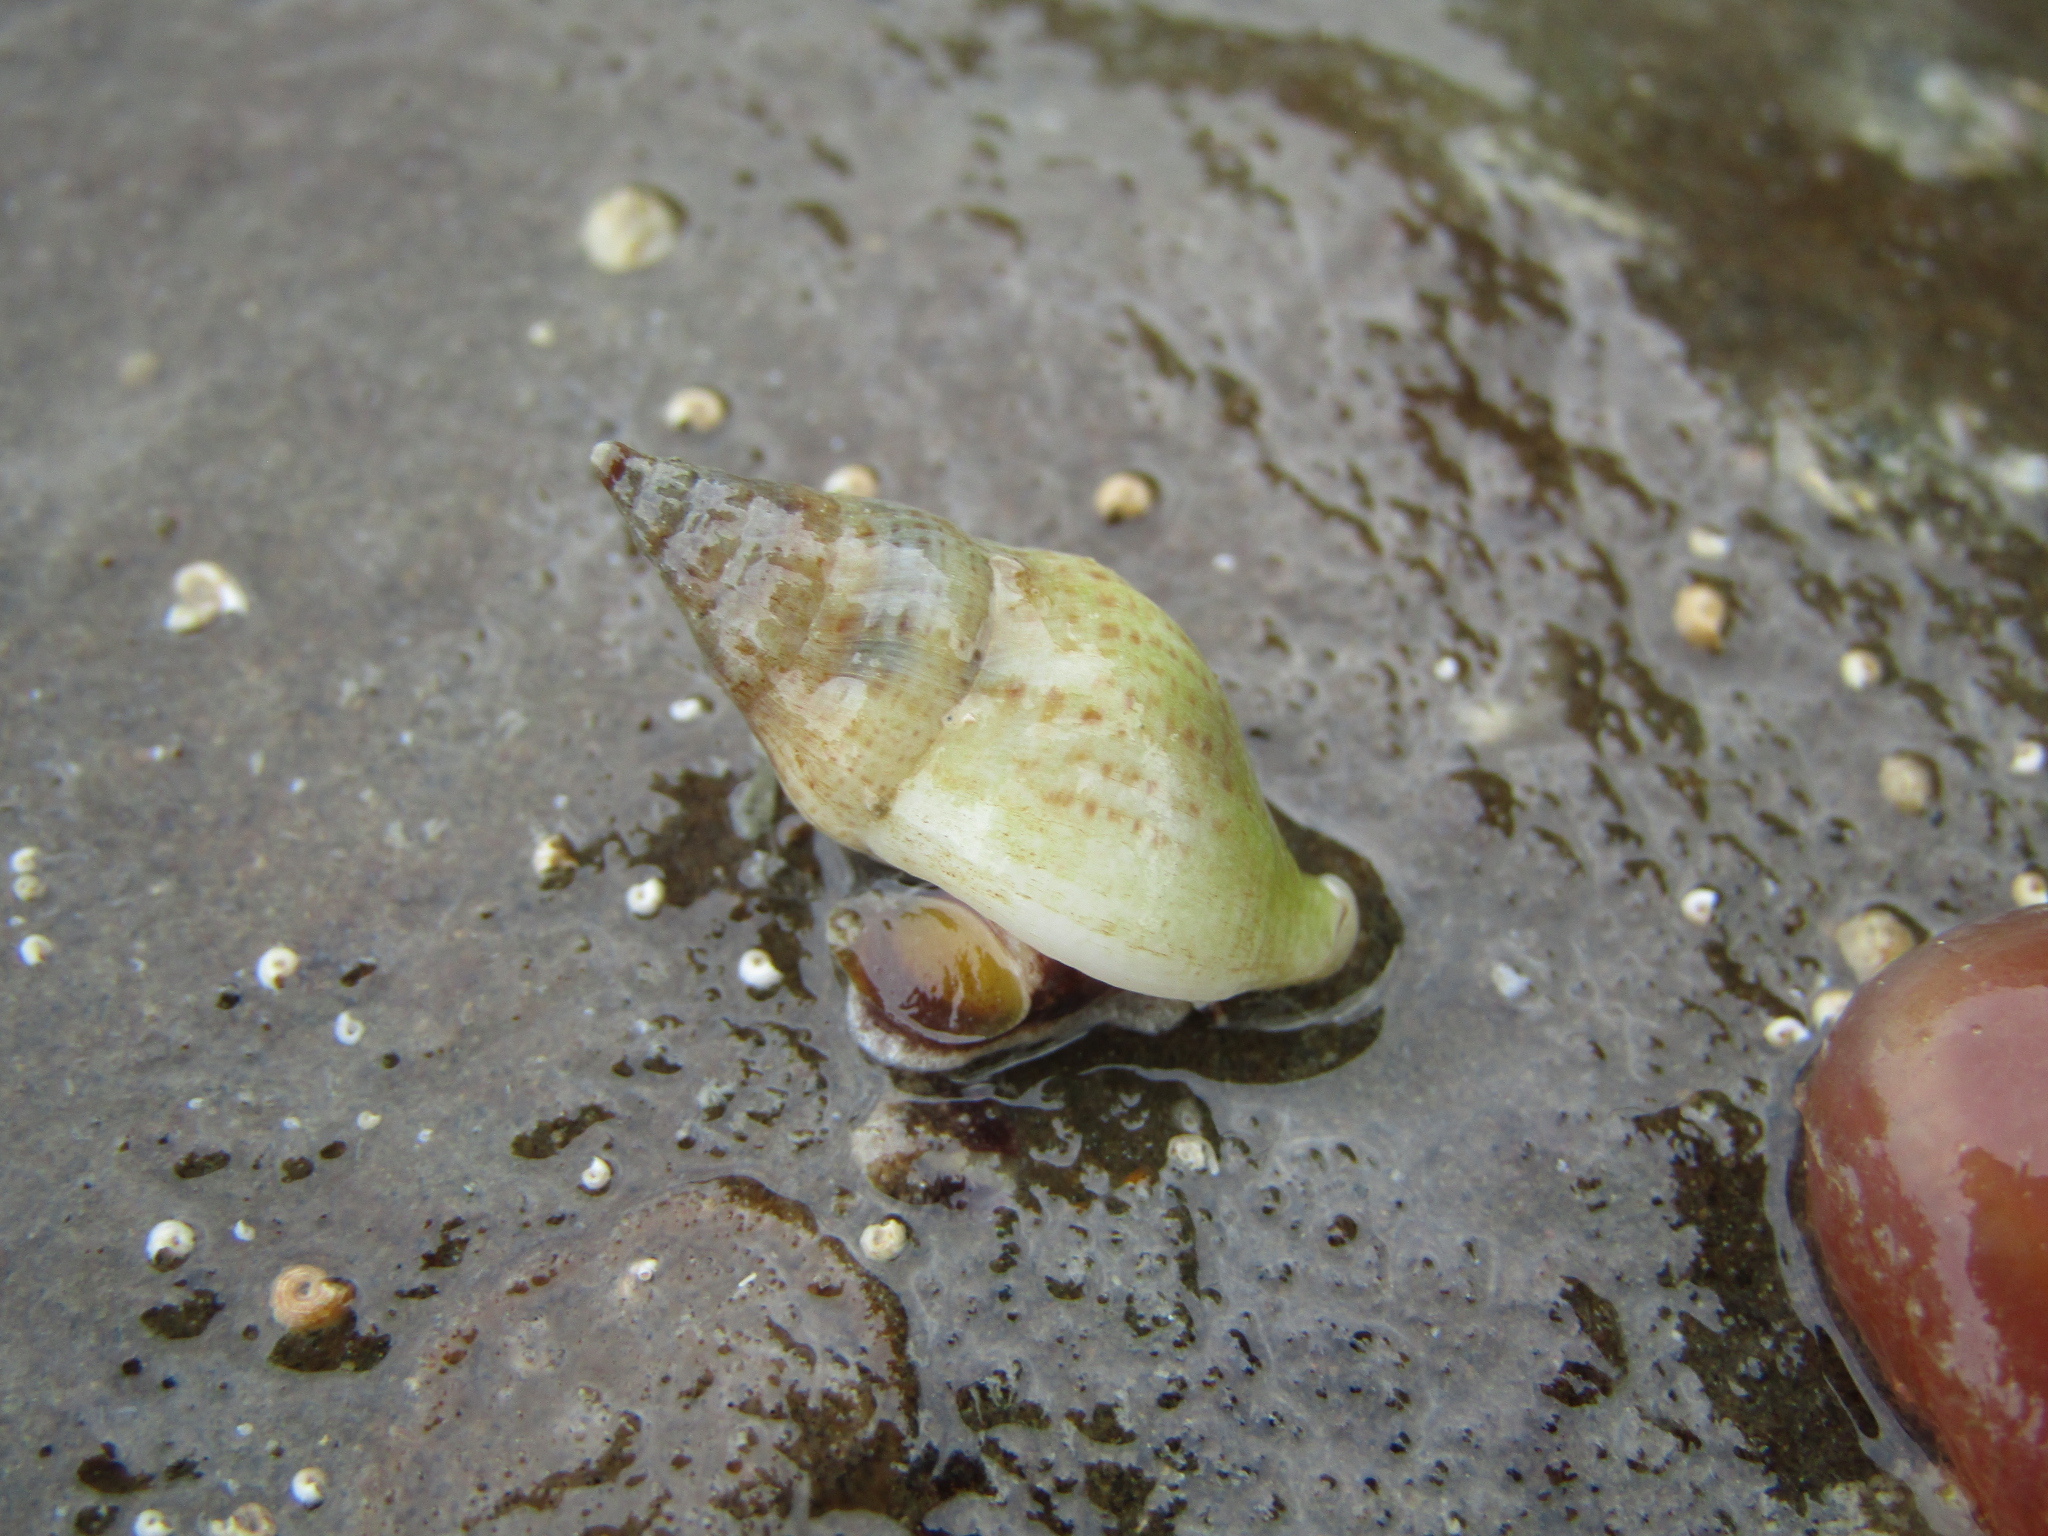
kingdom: Animalia
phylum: Mollusca
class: Gastropoda
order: Neogastropoda
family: Tudiclidae
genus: Buccinulum
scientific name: Buccinulum vittatum
